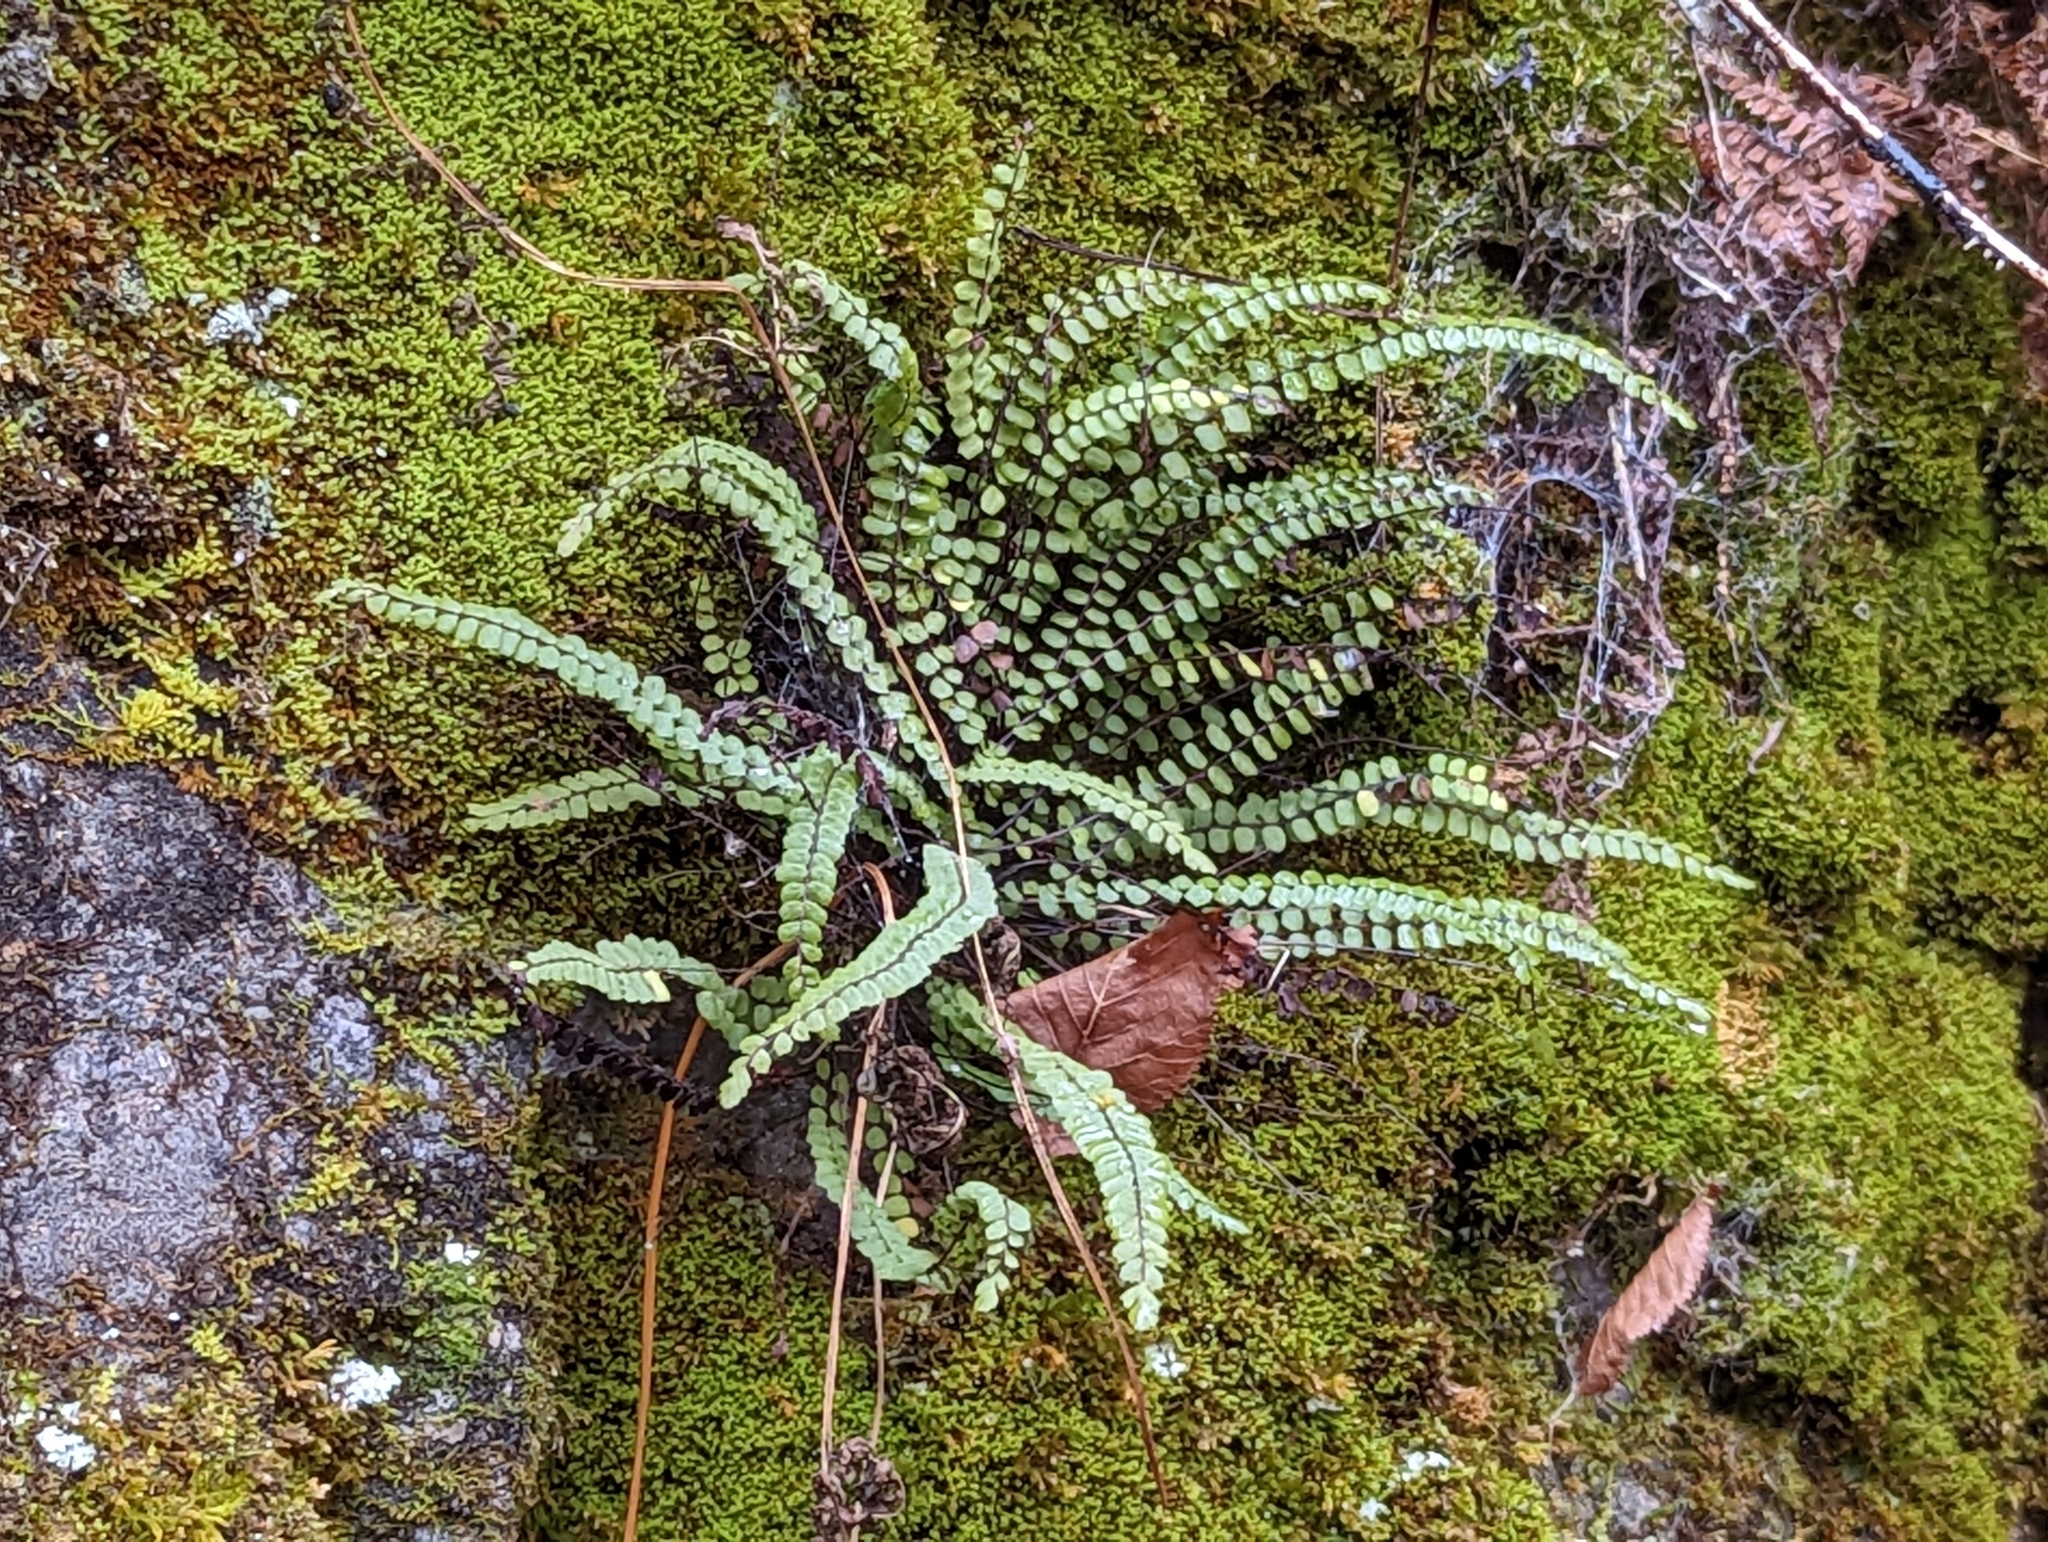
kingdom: Plantae
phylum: Tracheophyta
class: Polypodiopsida
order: Polypodiales
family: Aspleniaceae
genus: Asplenium
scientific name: Asplenium trichomanes
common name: Maidenhair spleenwort
